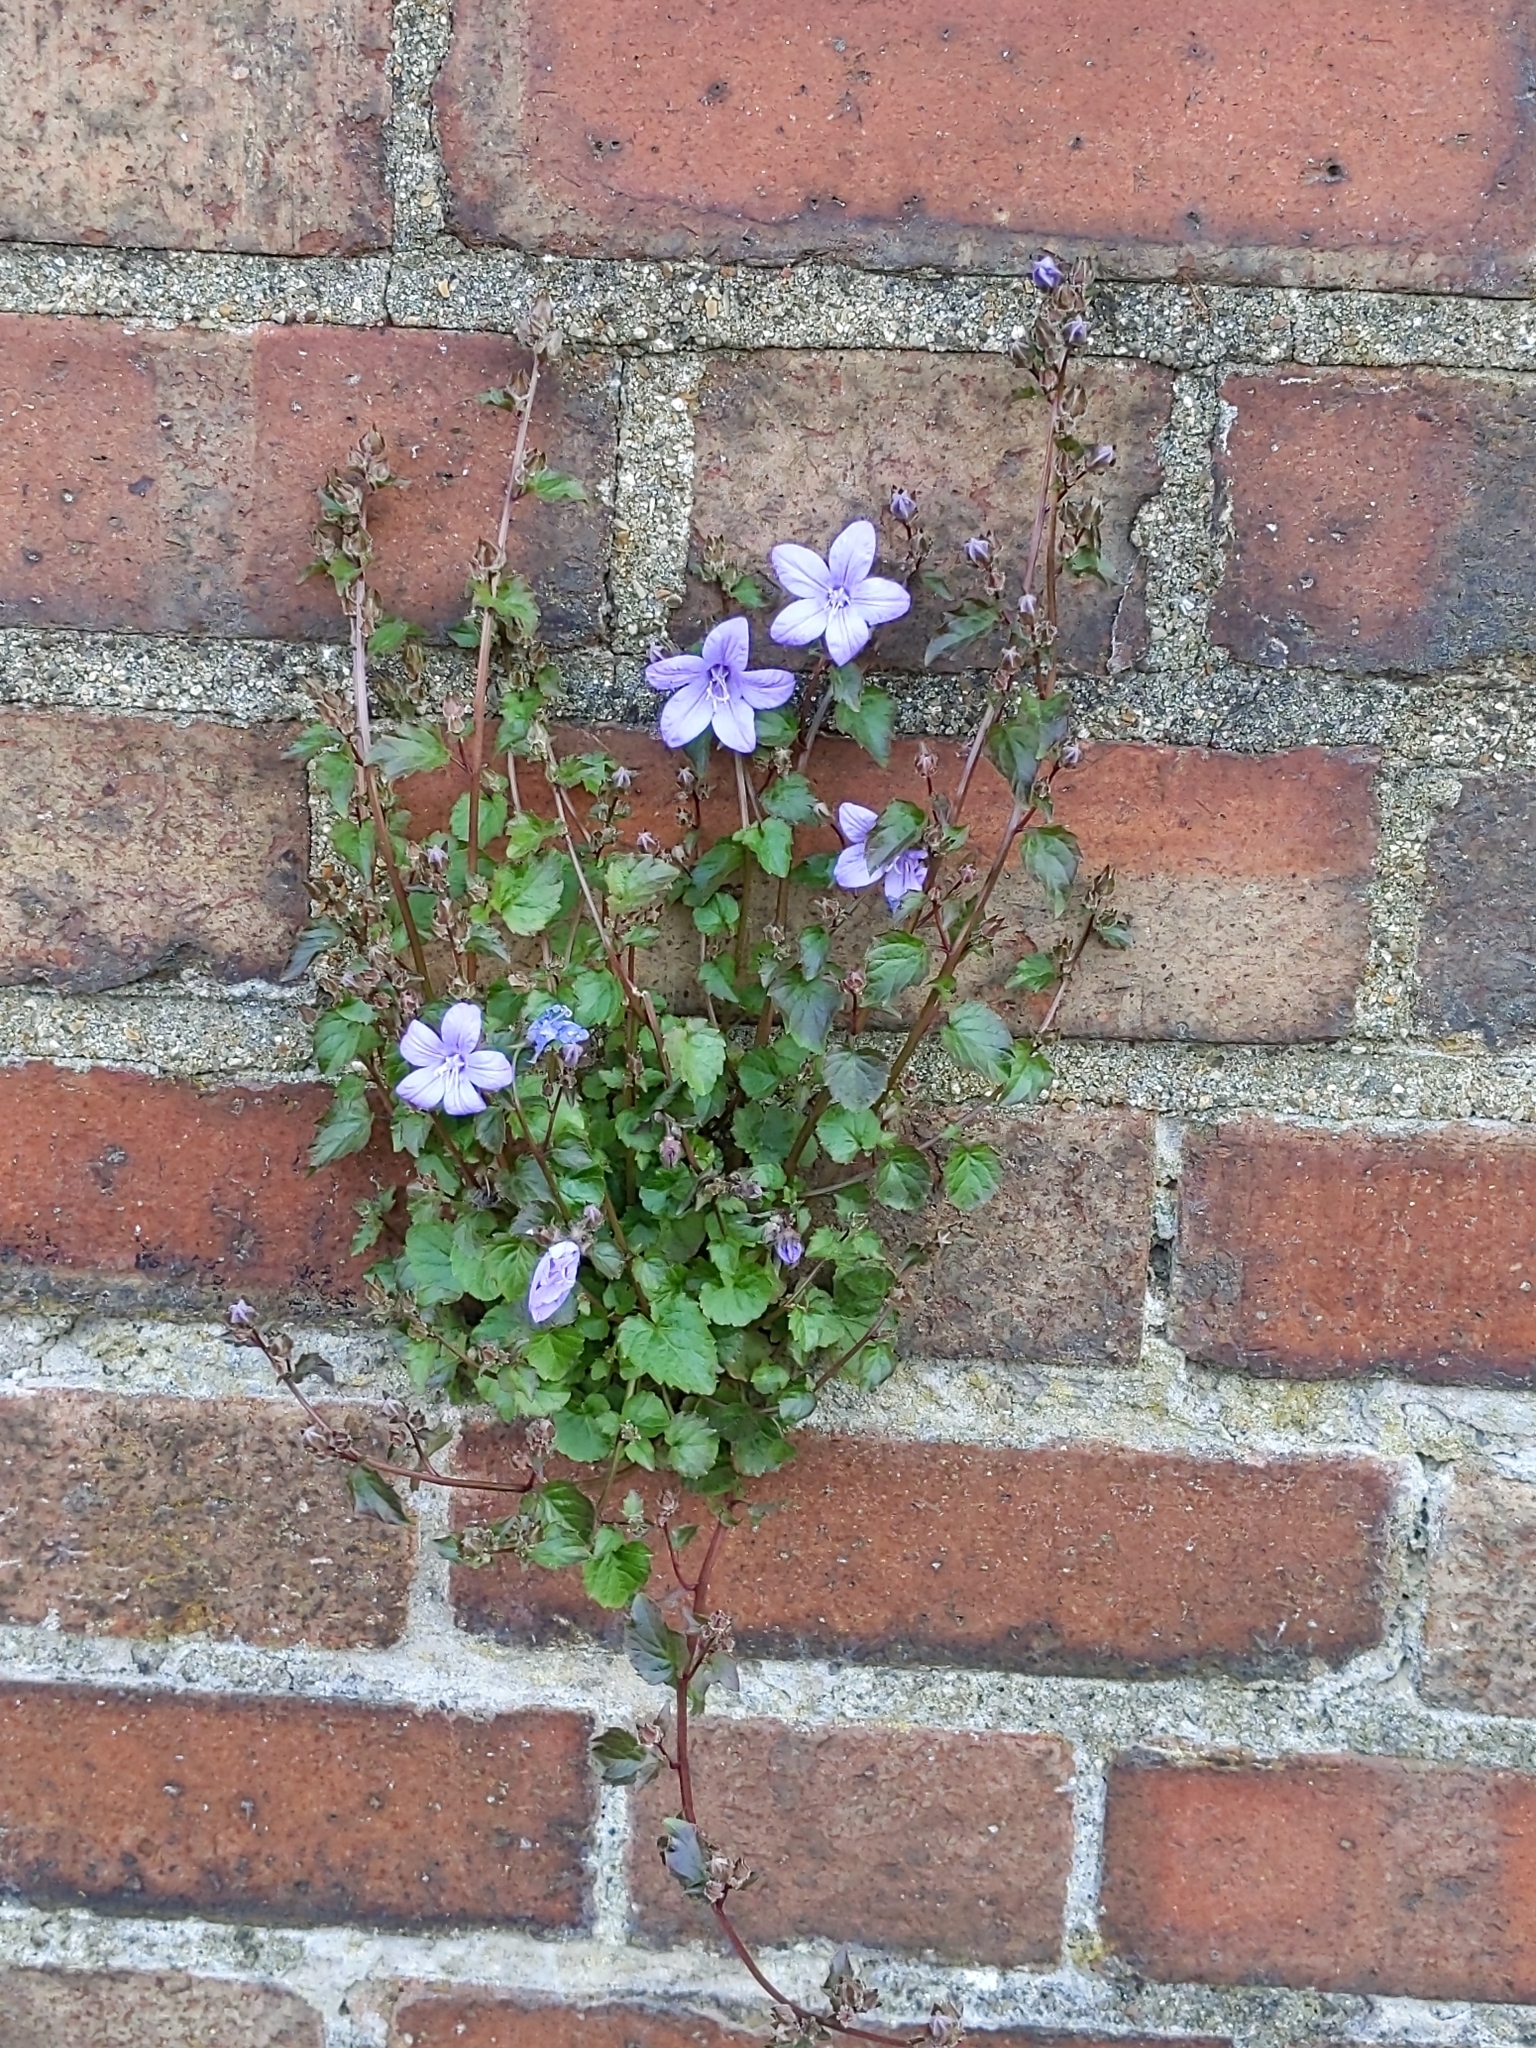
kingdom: Plantae
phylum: Tracheophyta
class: Magnoliopsida
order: Asterales
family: Campanulaceae
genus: Campanula
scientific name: Campanula poscharskyana
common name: Trailing bellflower
